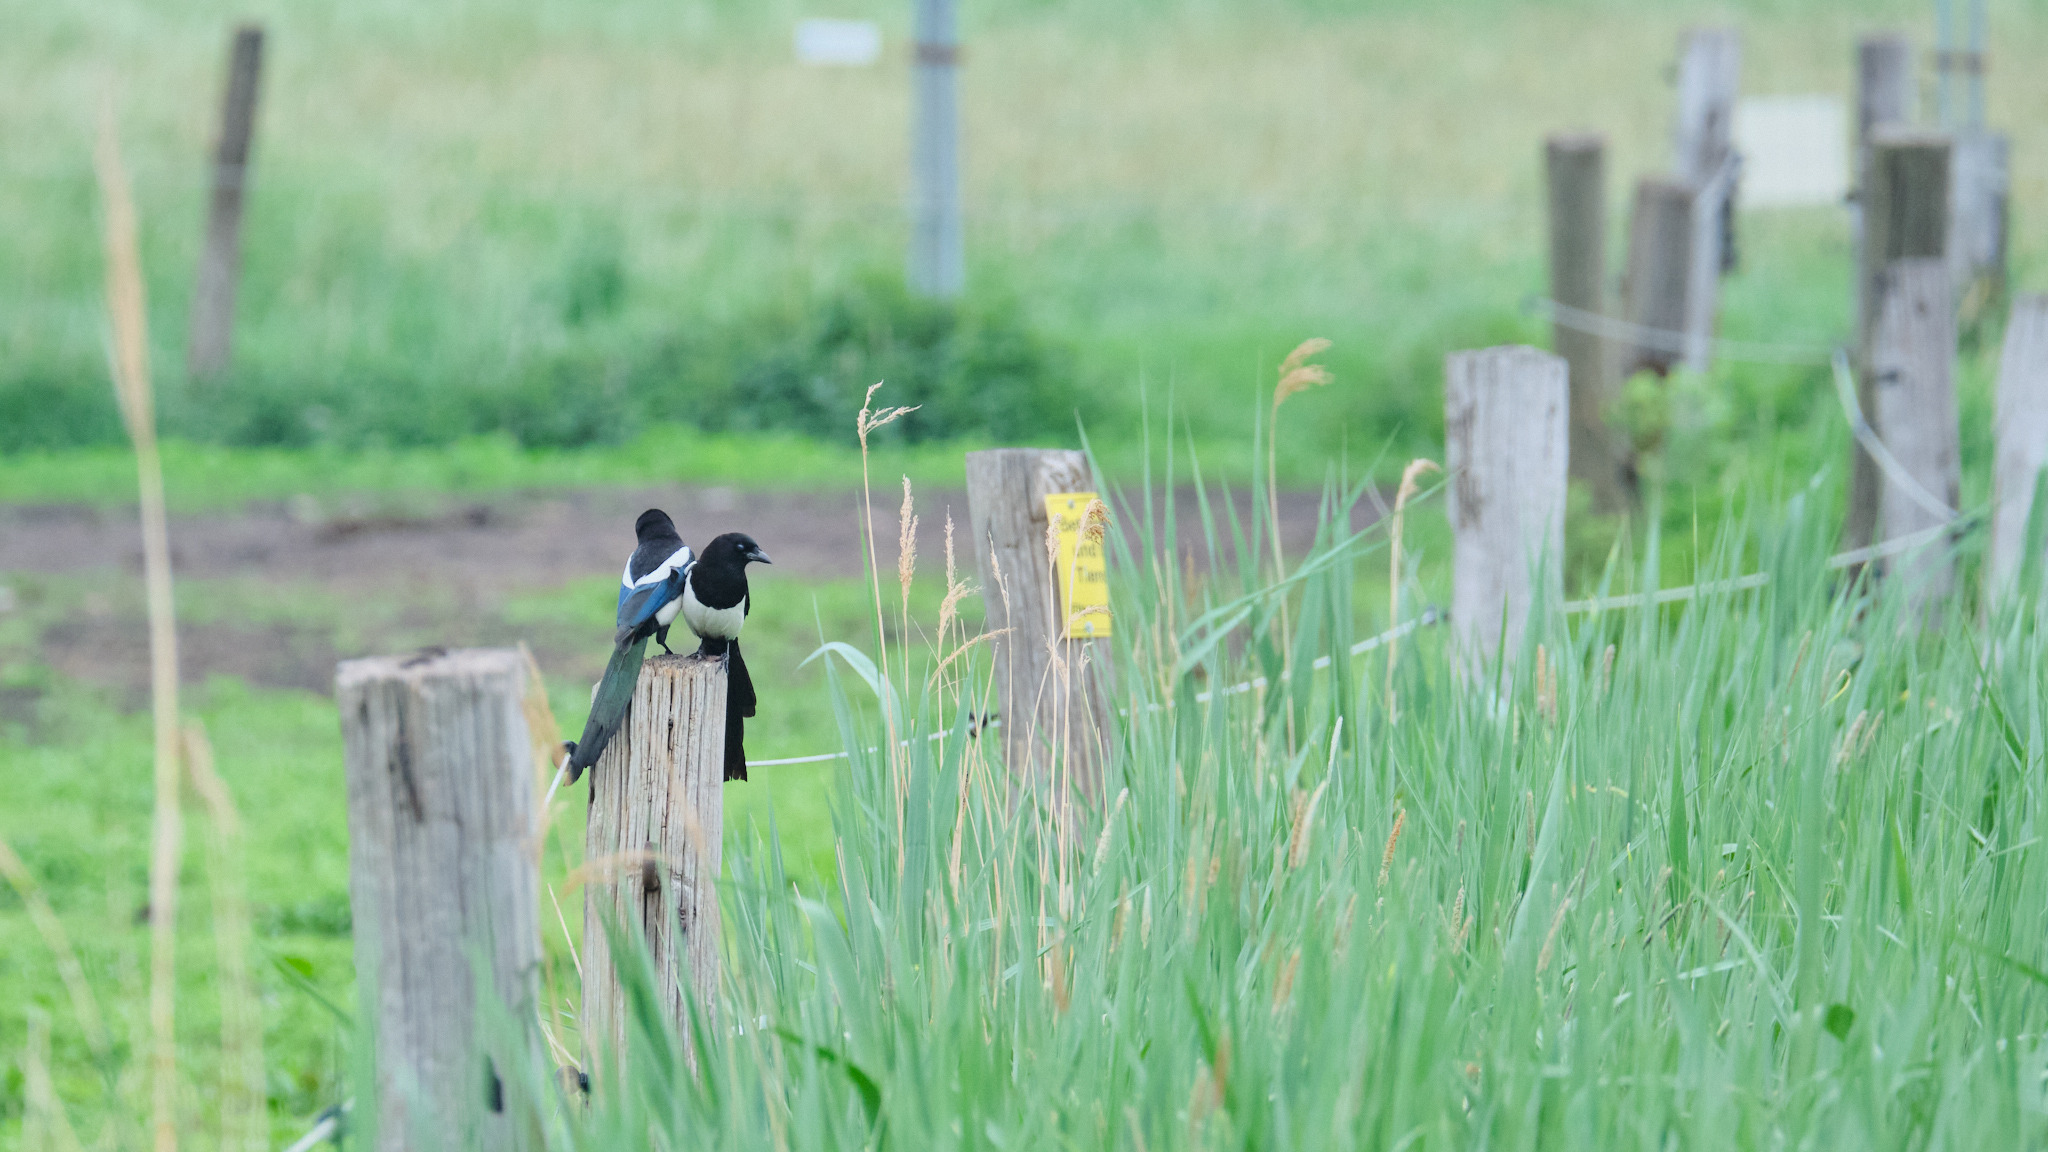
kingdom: Animalia
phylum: Chordata
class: Aves
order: Passeriformes
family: Corvidae
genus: Pica
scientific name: Pica pica
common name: Eurasian magpie
